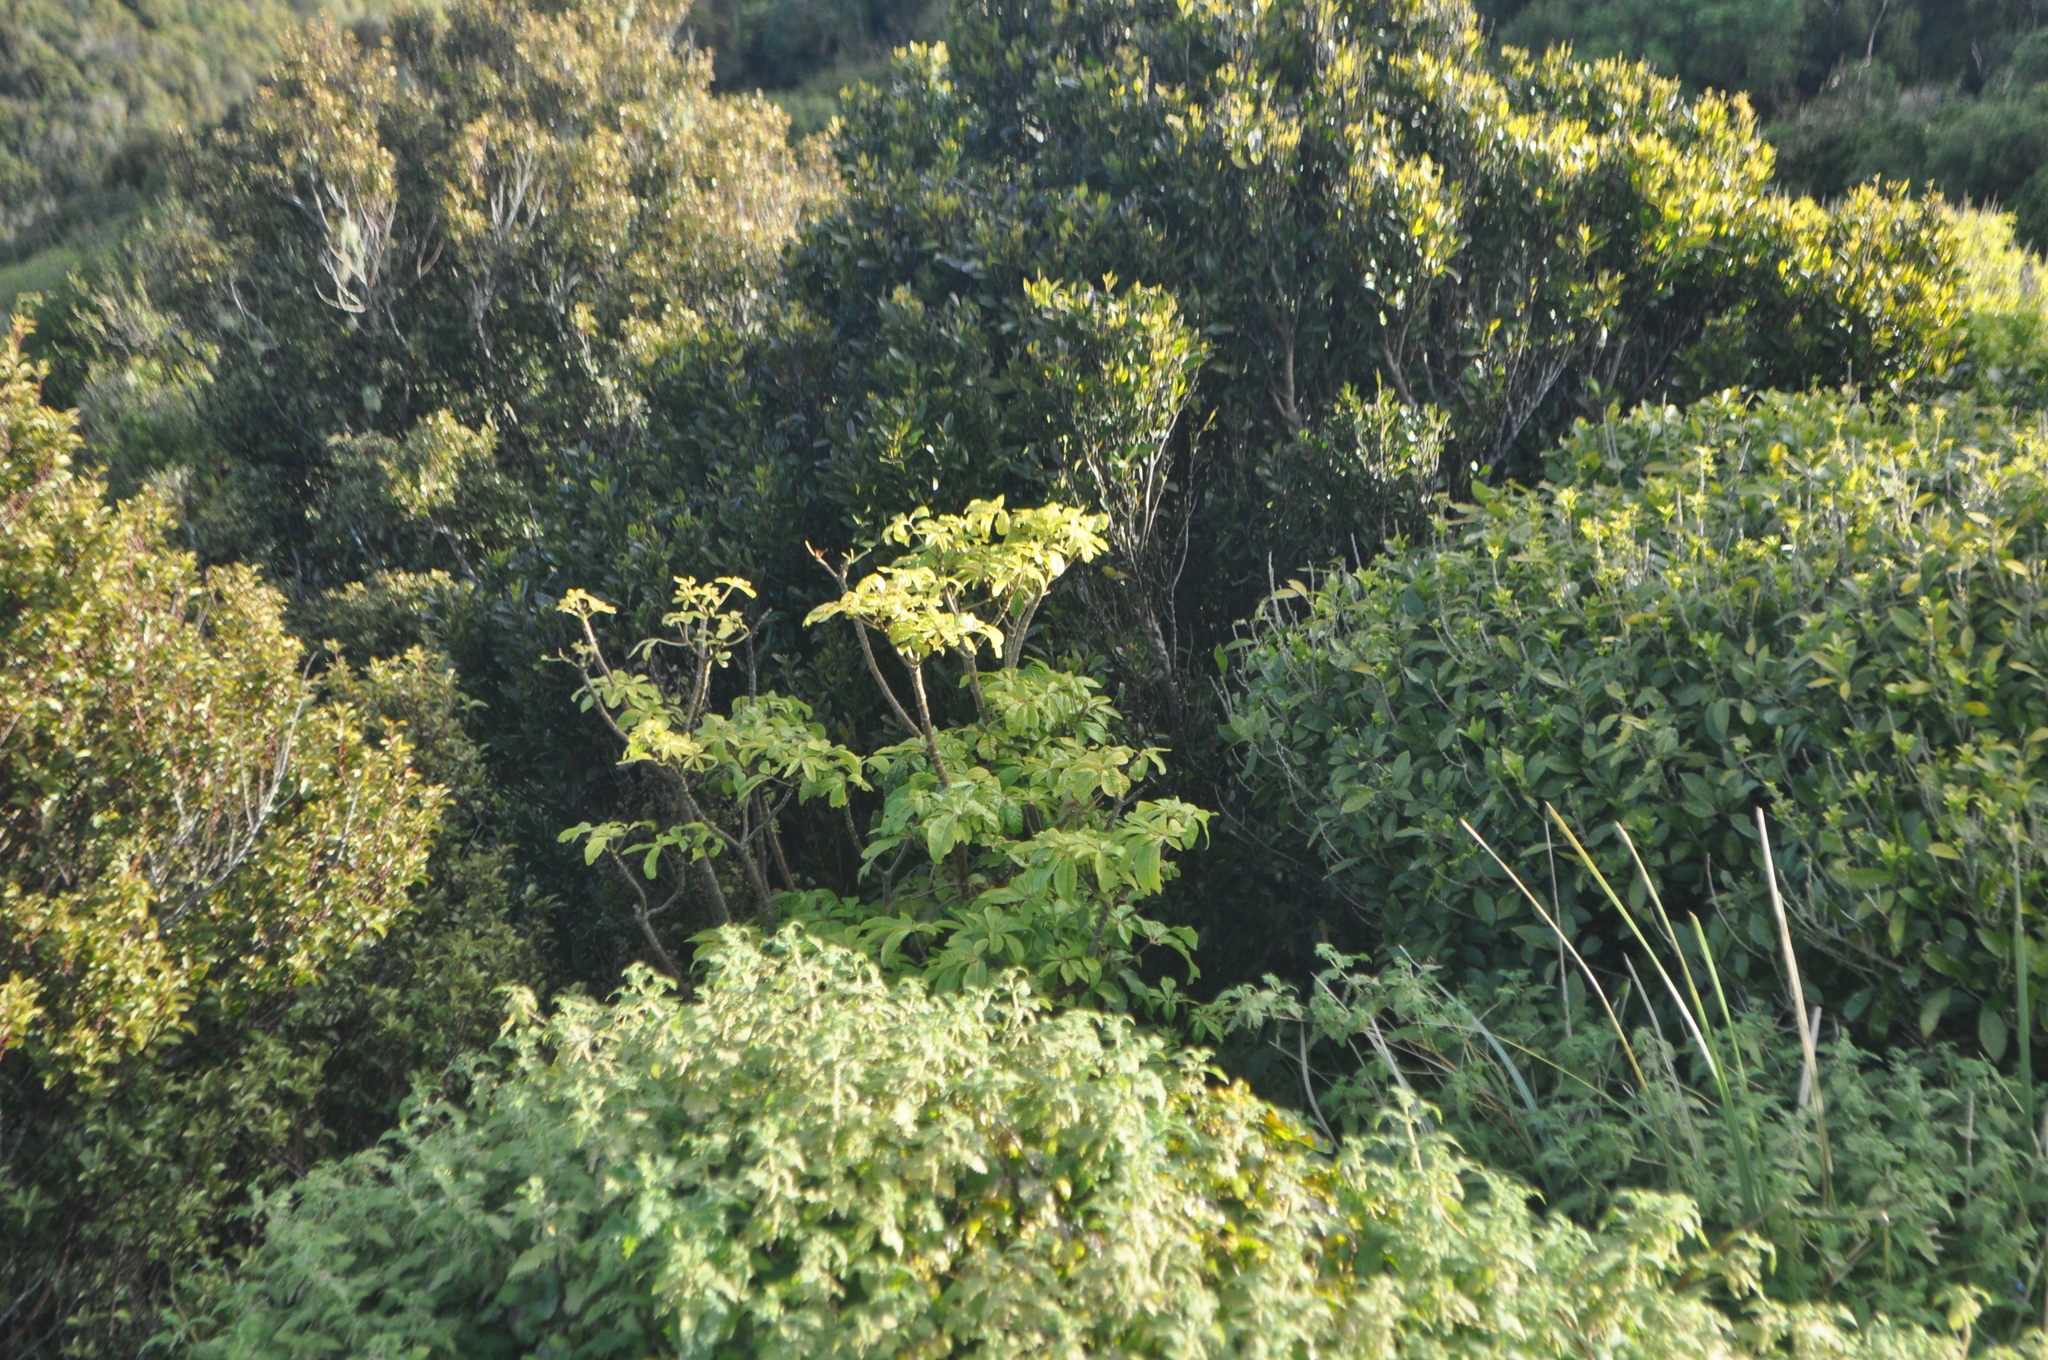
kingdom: Plantae
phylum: Tracheophyta
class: Magnoliopsida
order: Apiales
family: Araliaceae
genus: Schefflera
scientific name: Schefflera digitata
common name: Pate
